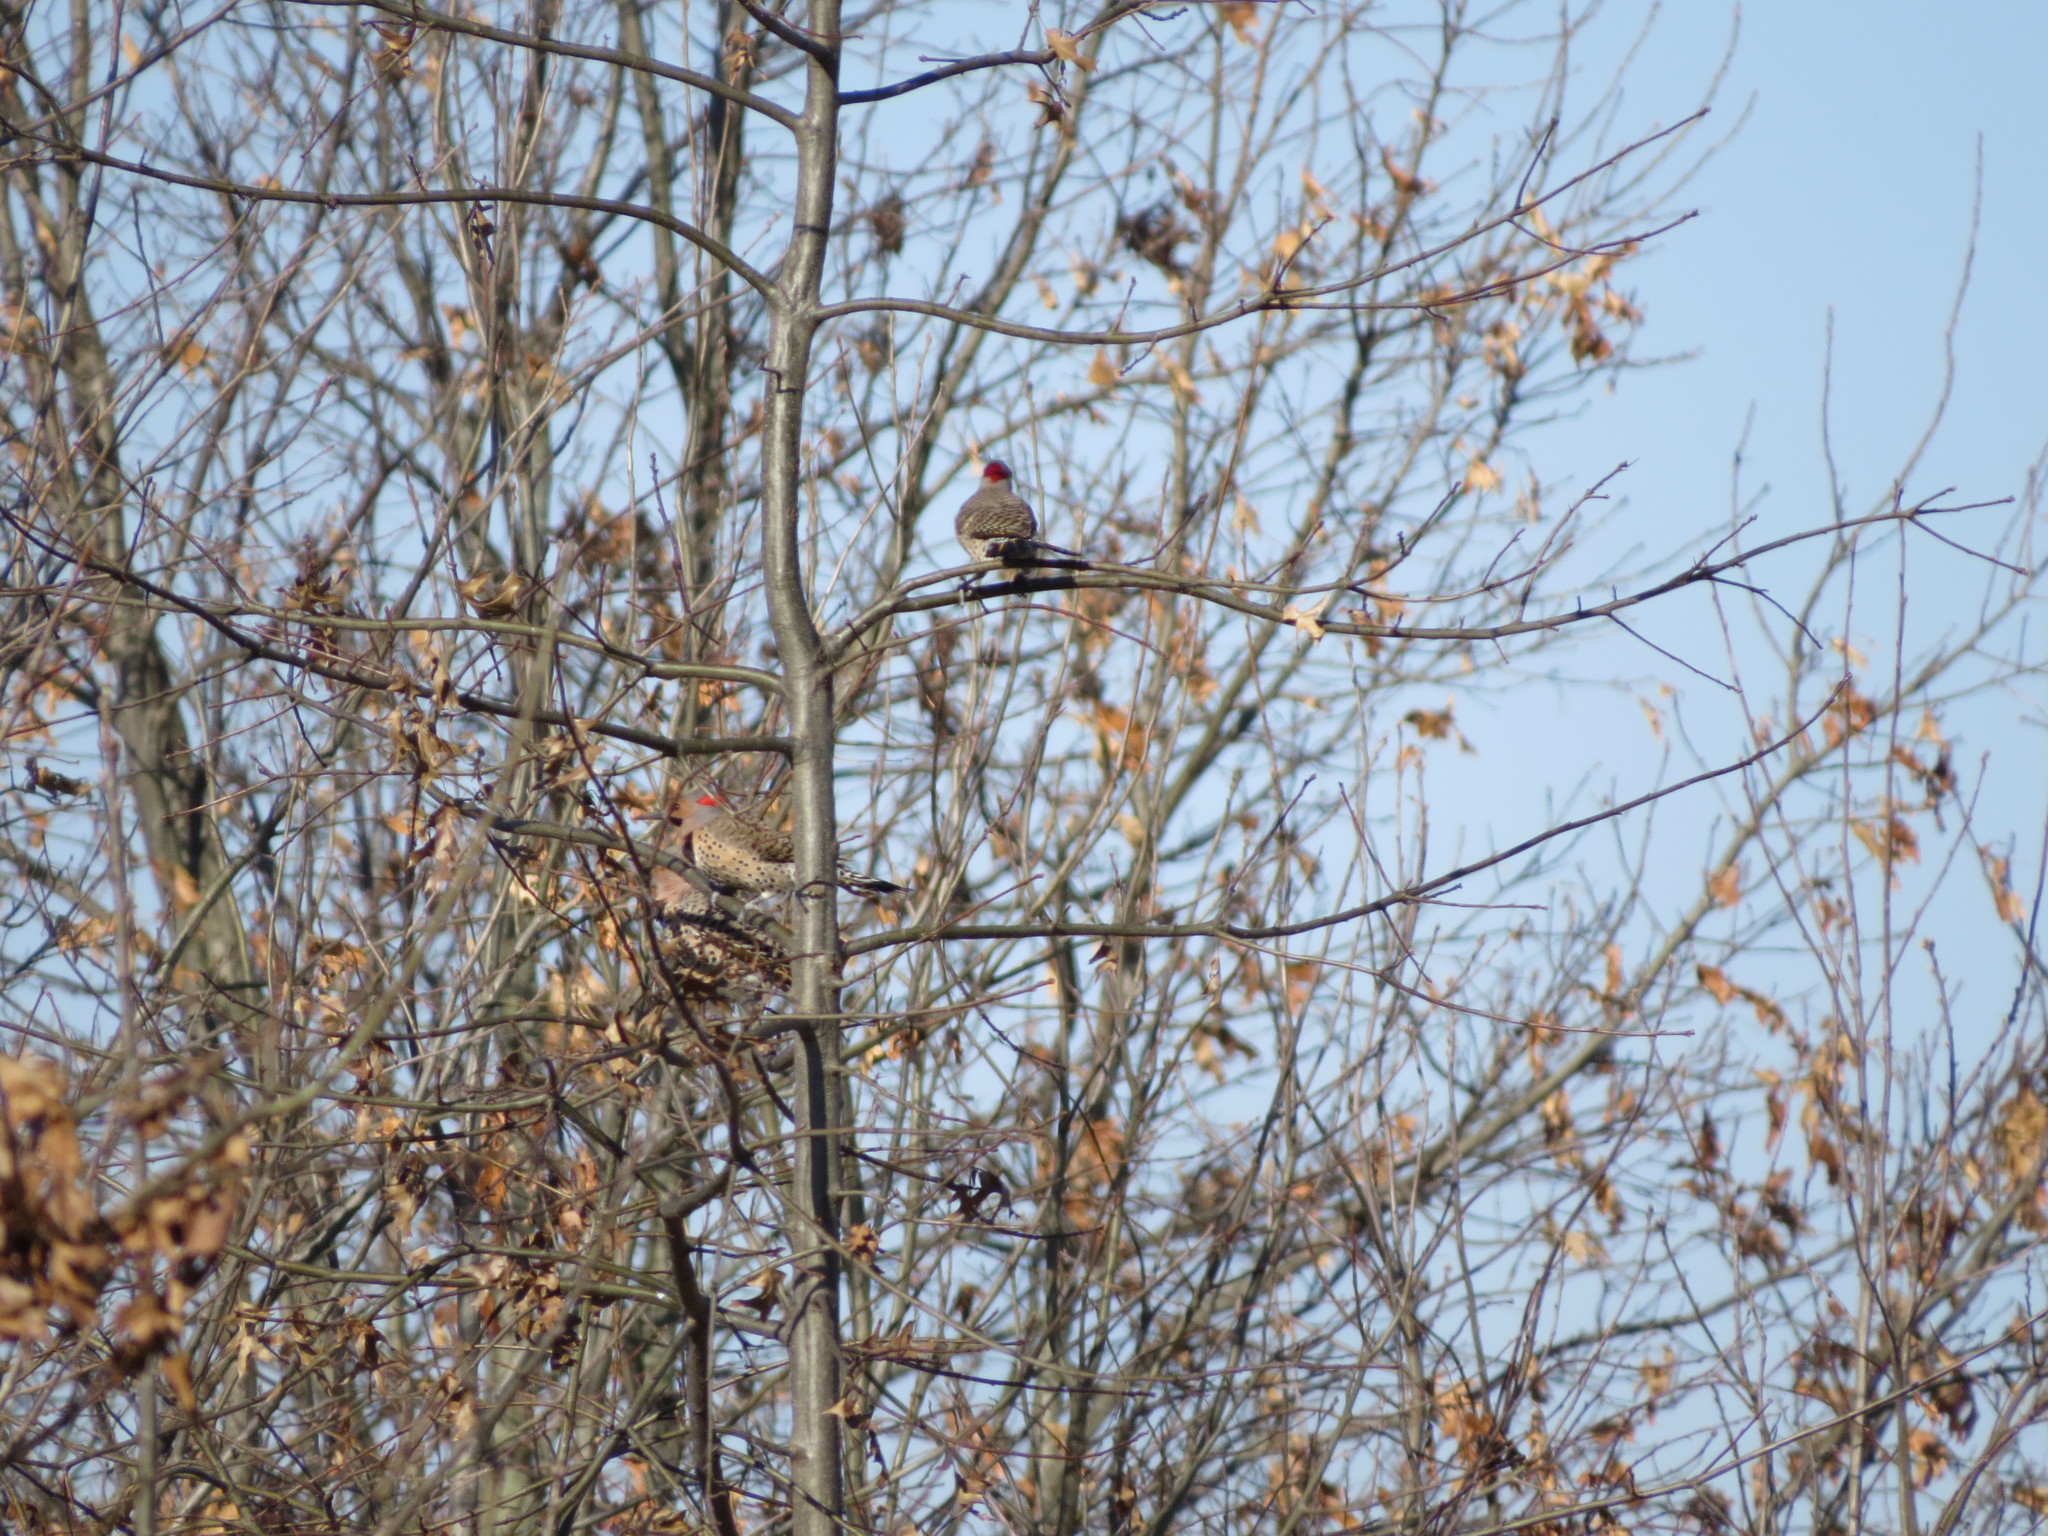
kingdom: Animalia
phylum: Chordata
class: Aves
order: Piciformes
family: Picidae
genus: Colaptes
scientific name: Colaptes auratus
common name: Northern flicker
